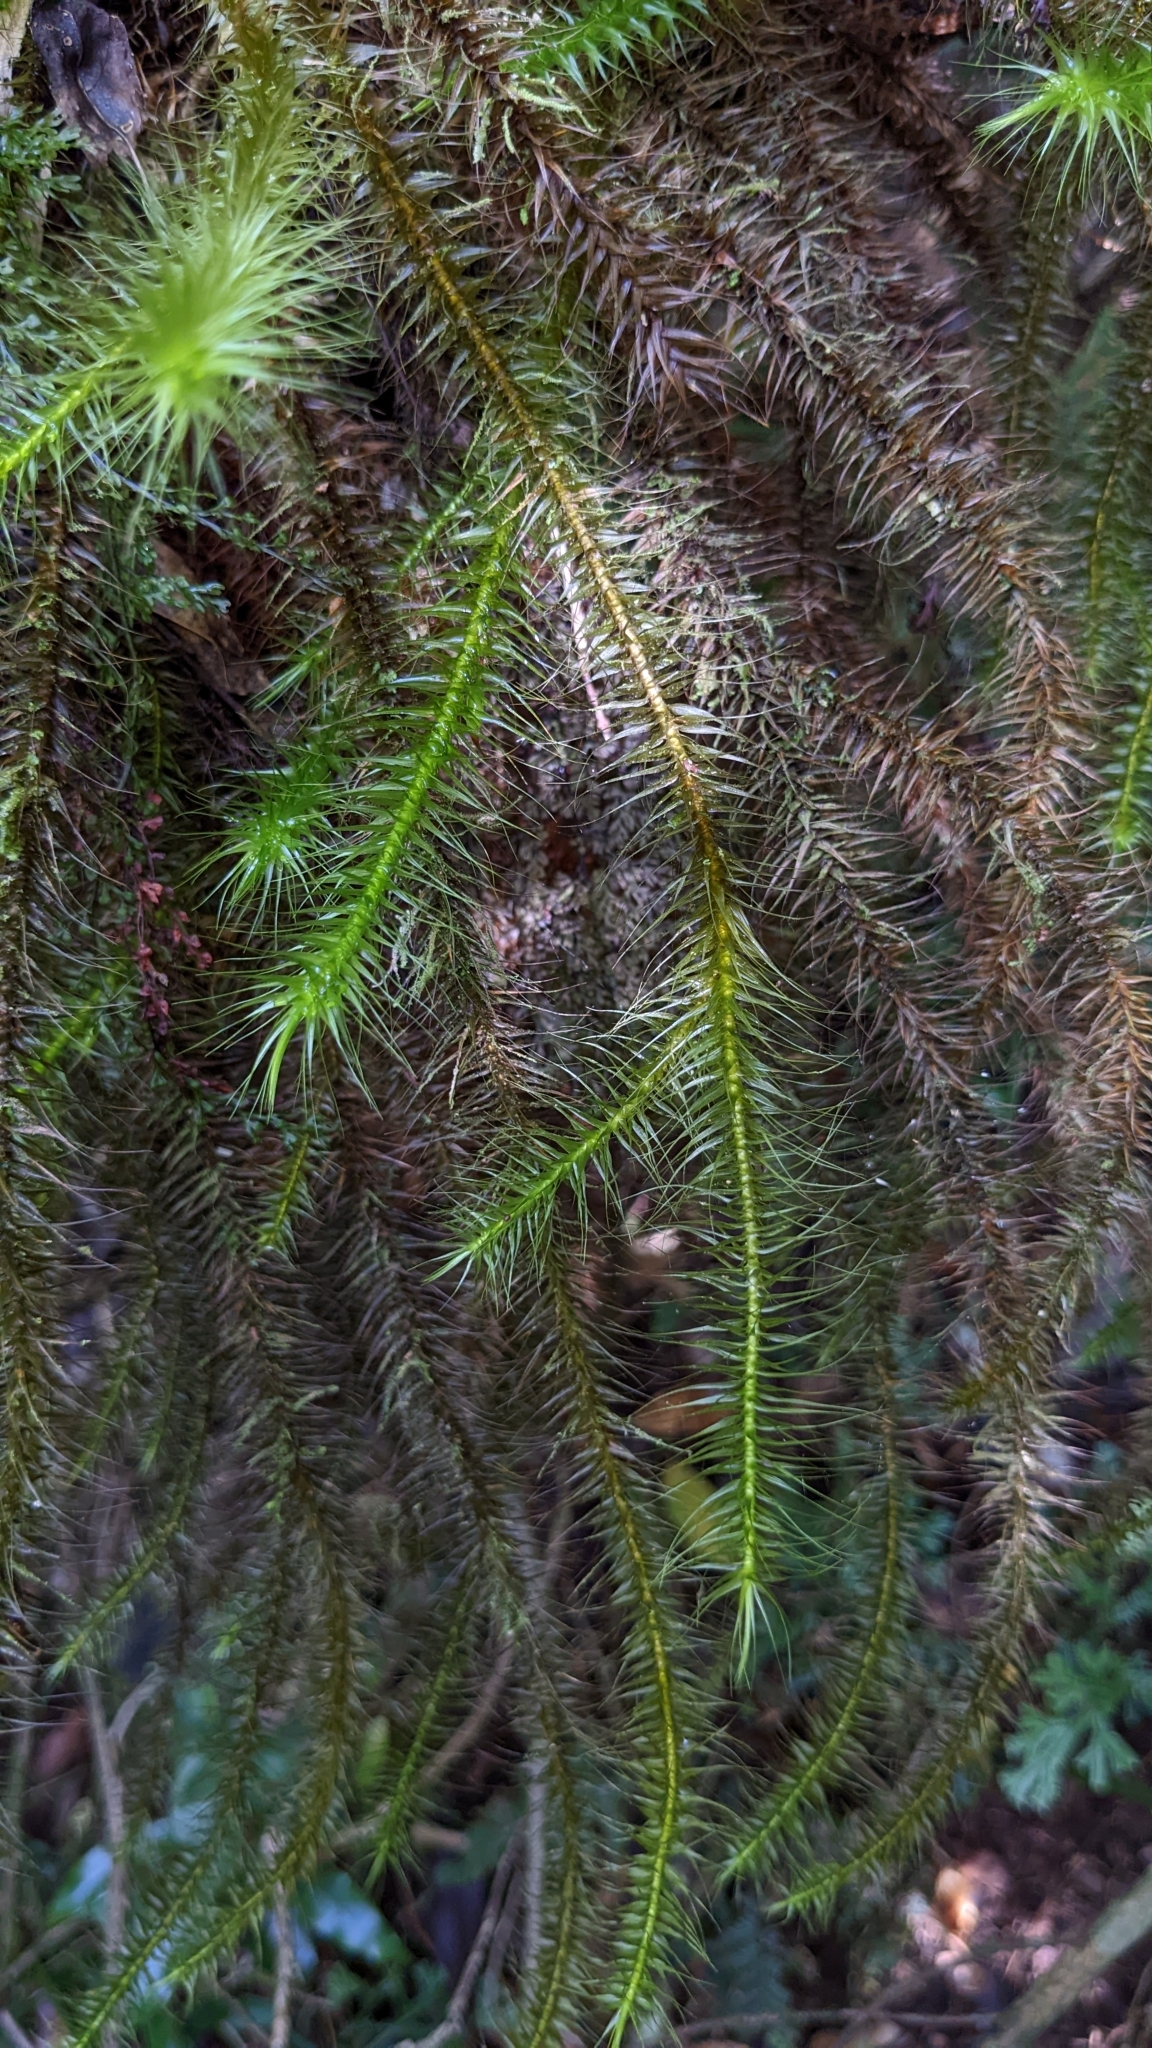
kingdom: Plantae
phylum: Bryophyta
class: Bryopsida
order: Hypnodendrales
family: Spiridentaceae
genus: Spiridens
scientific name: Spiridens reinwardtii
